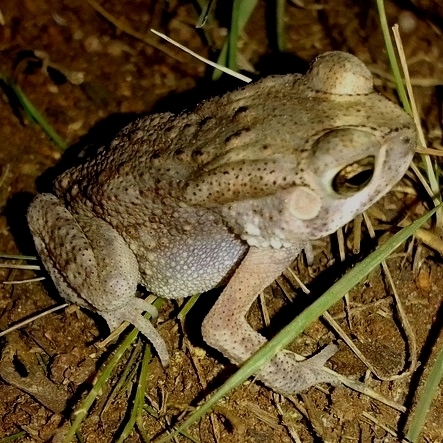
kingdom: Animalia
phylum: Chordata
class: Amphibia
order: Anura
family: Bufonidae
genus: Duttaphrynus
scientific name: Duttaphrynus melanostictus
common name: Common sunda toad
